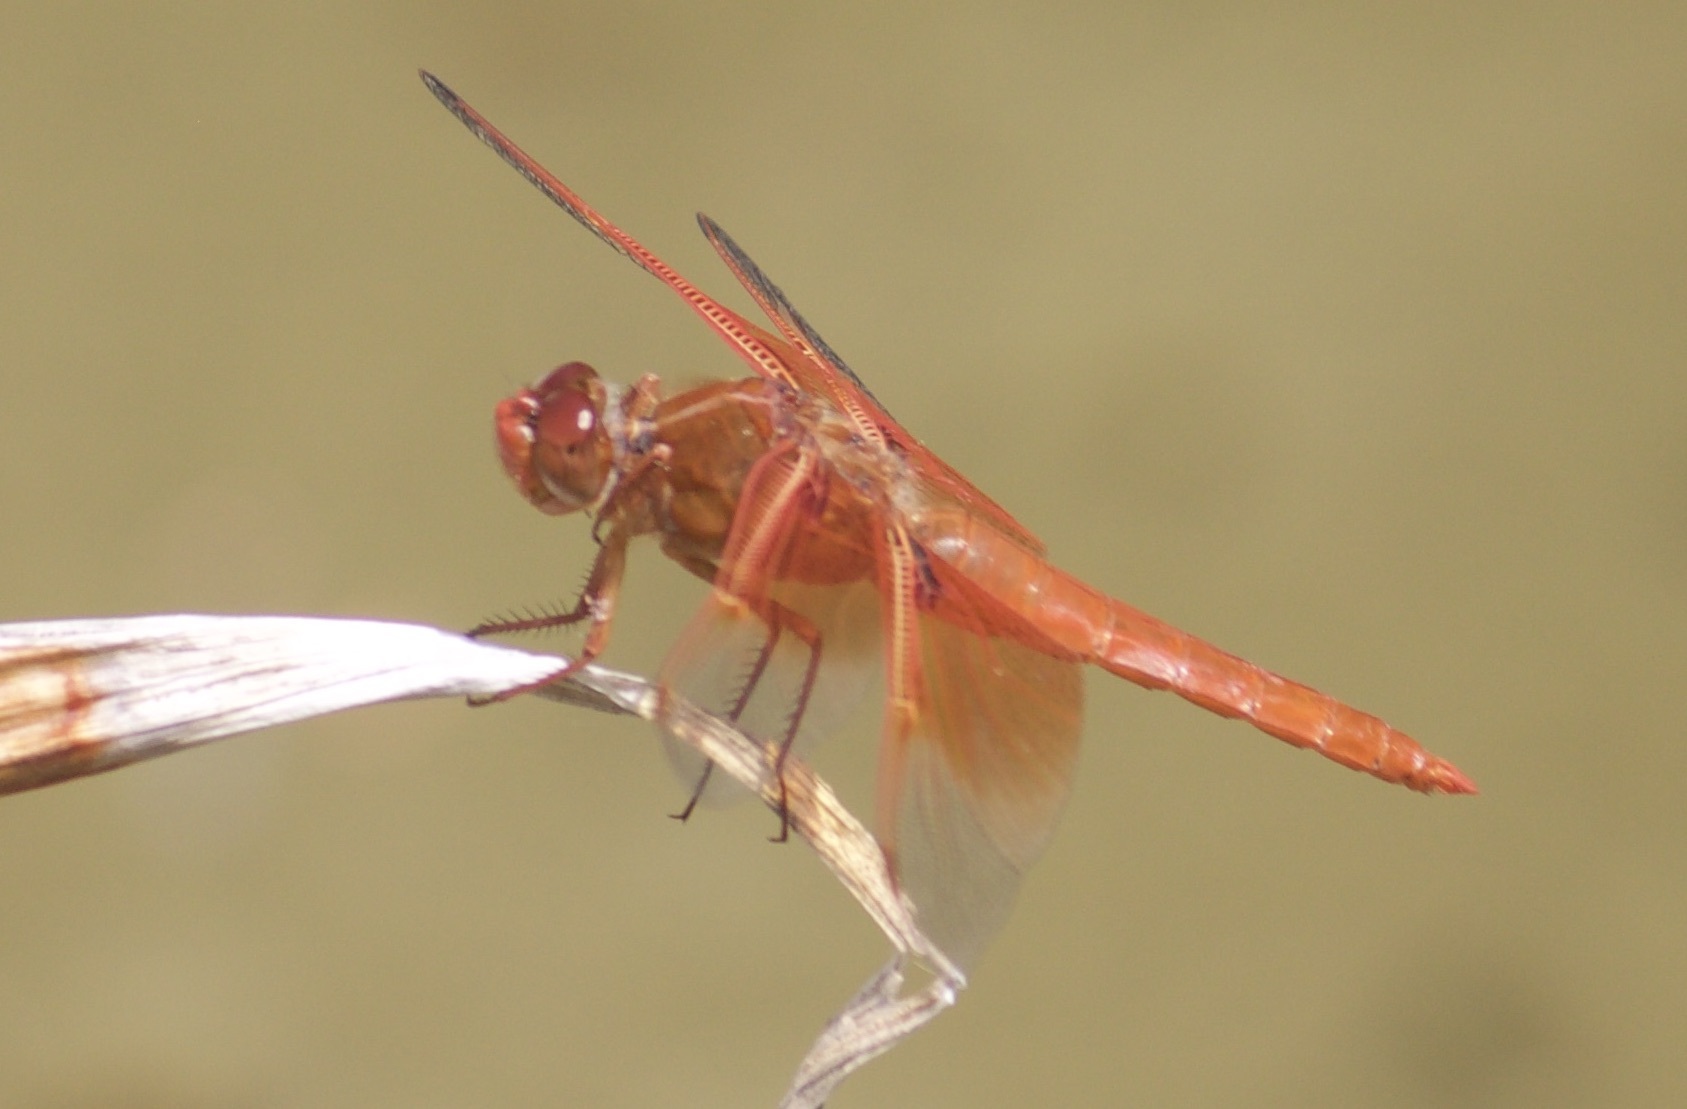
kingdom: Animalia
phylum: Arthropoda
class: Insecta
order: Odonata
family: Libellulidae
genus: Libellula
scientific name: Libellula saturata
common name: Flame skimmer
